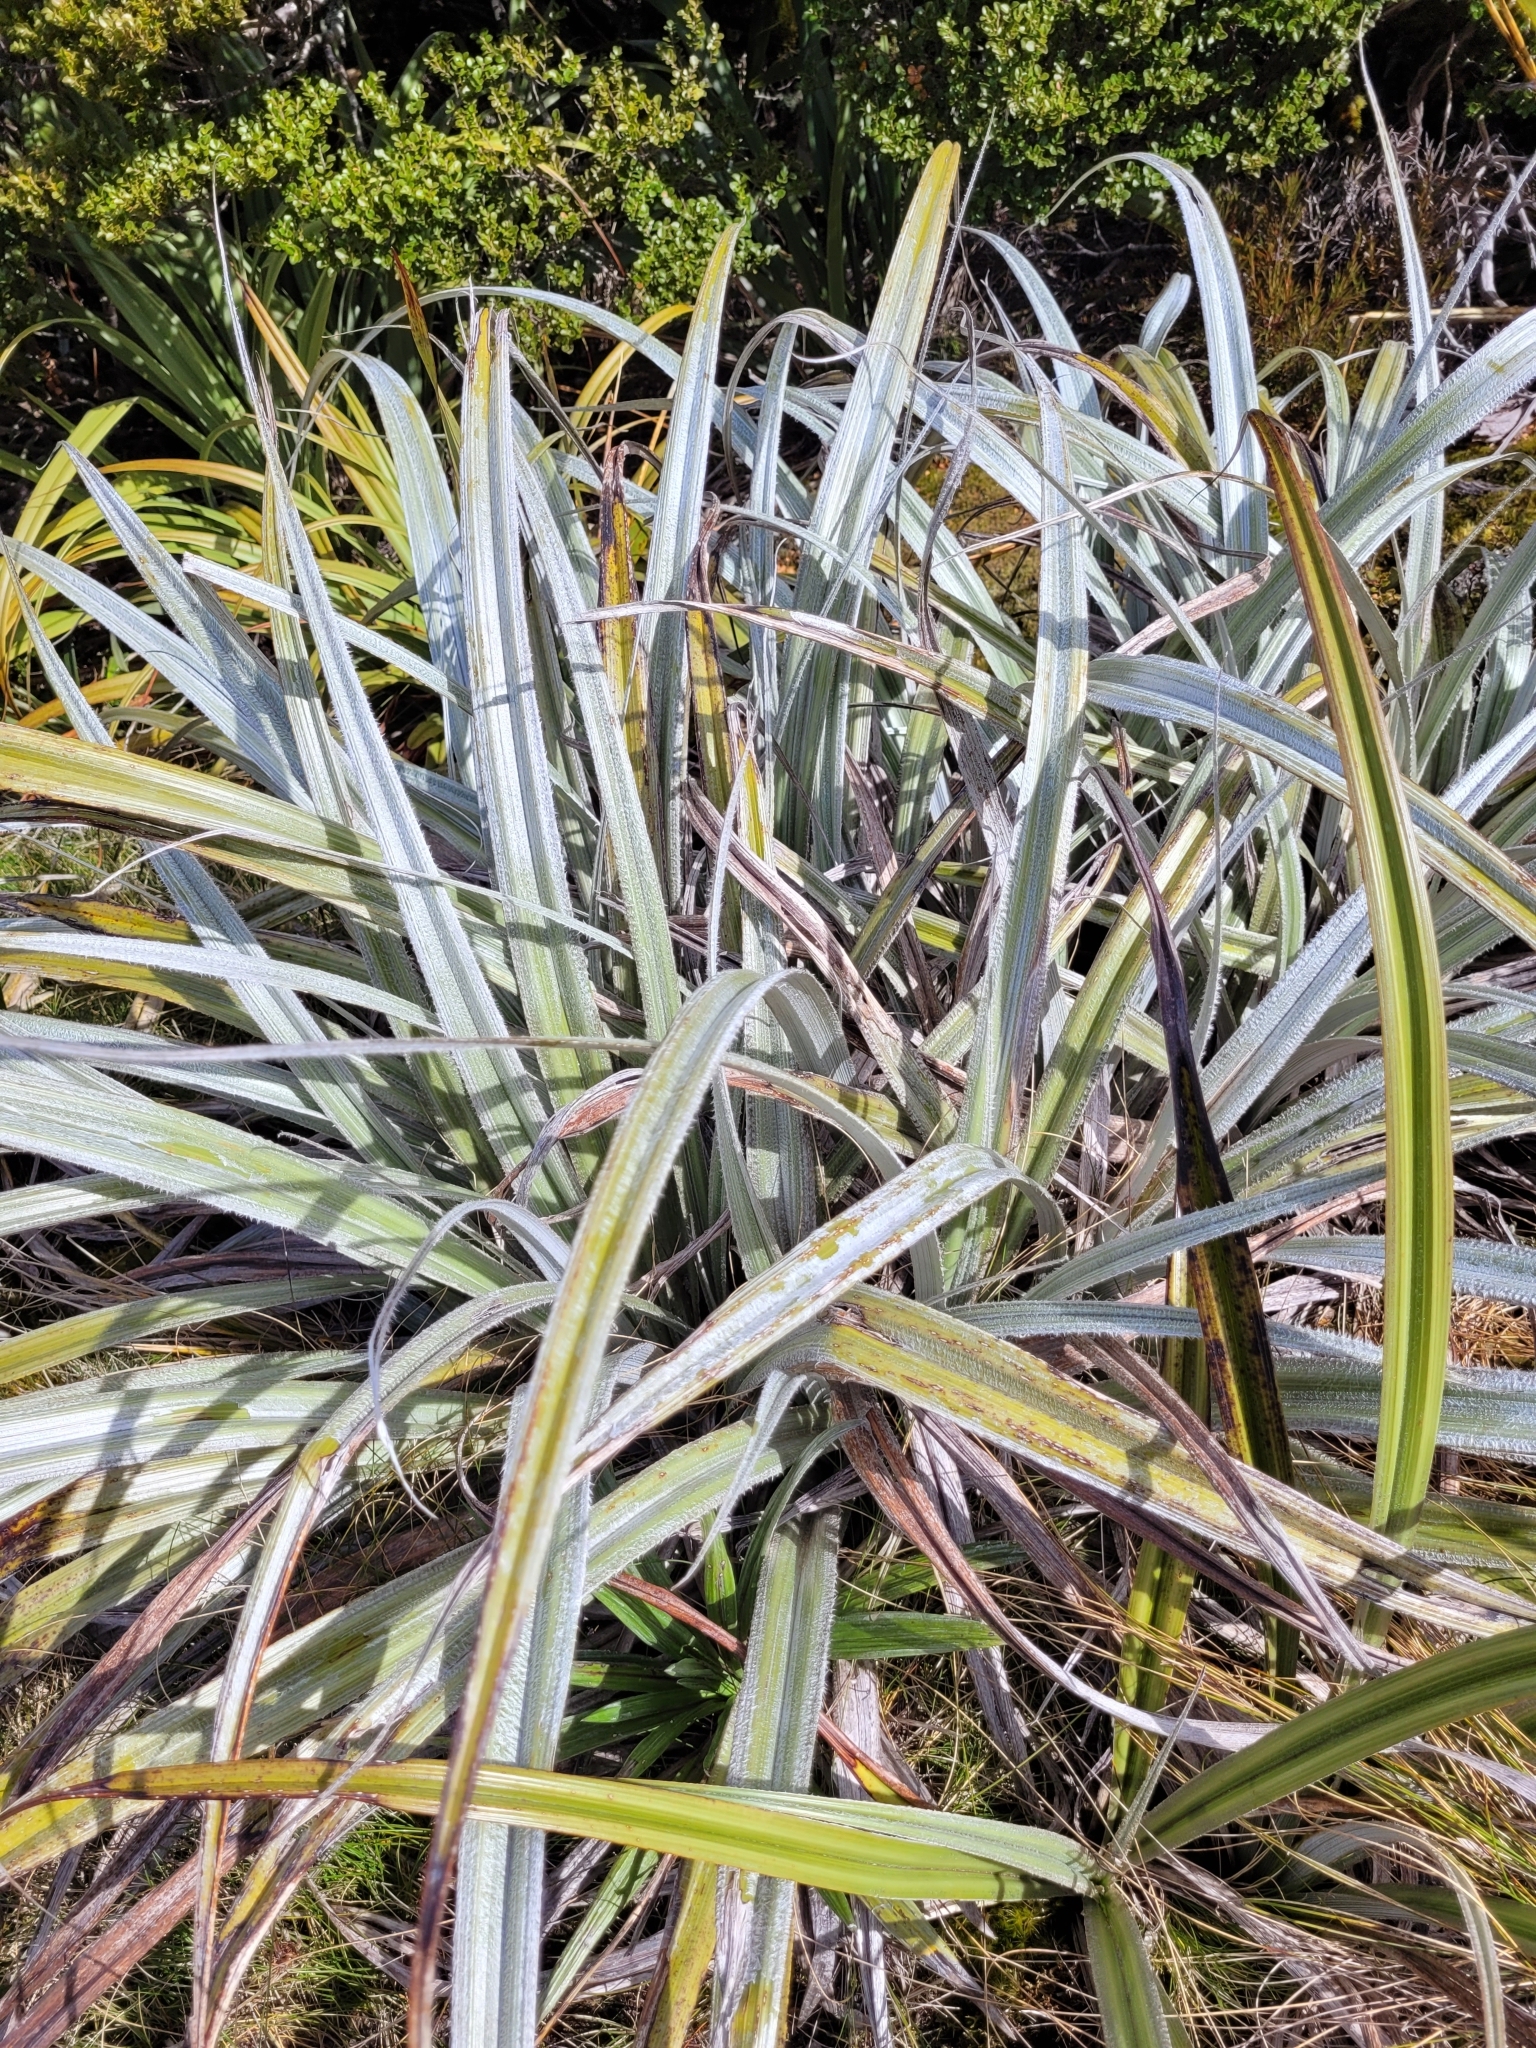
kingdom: Plantae
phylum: Tracheophyta
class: Liliopsida
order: Asparagales
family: Asteliaceae
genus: Astelia
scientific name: Astelia nervosa
